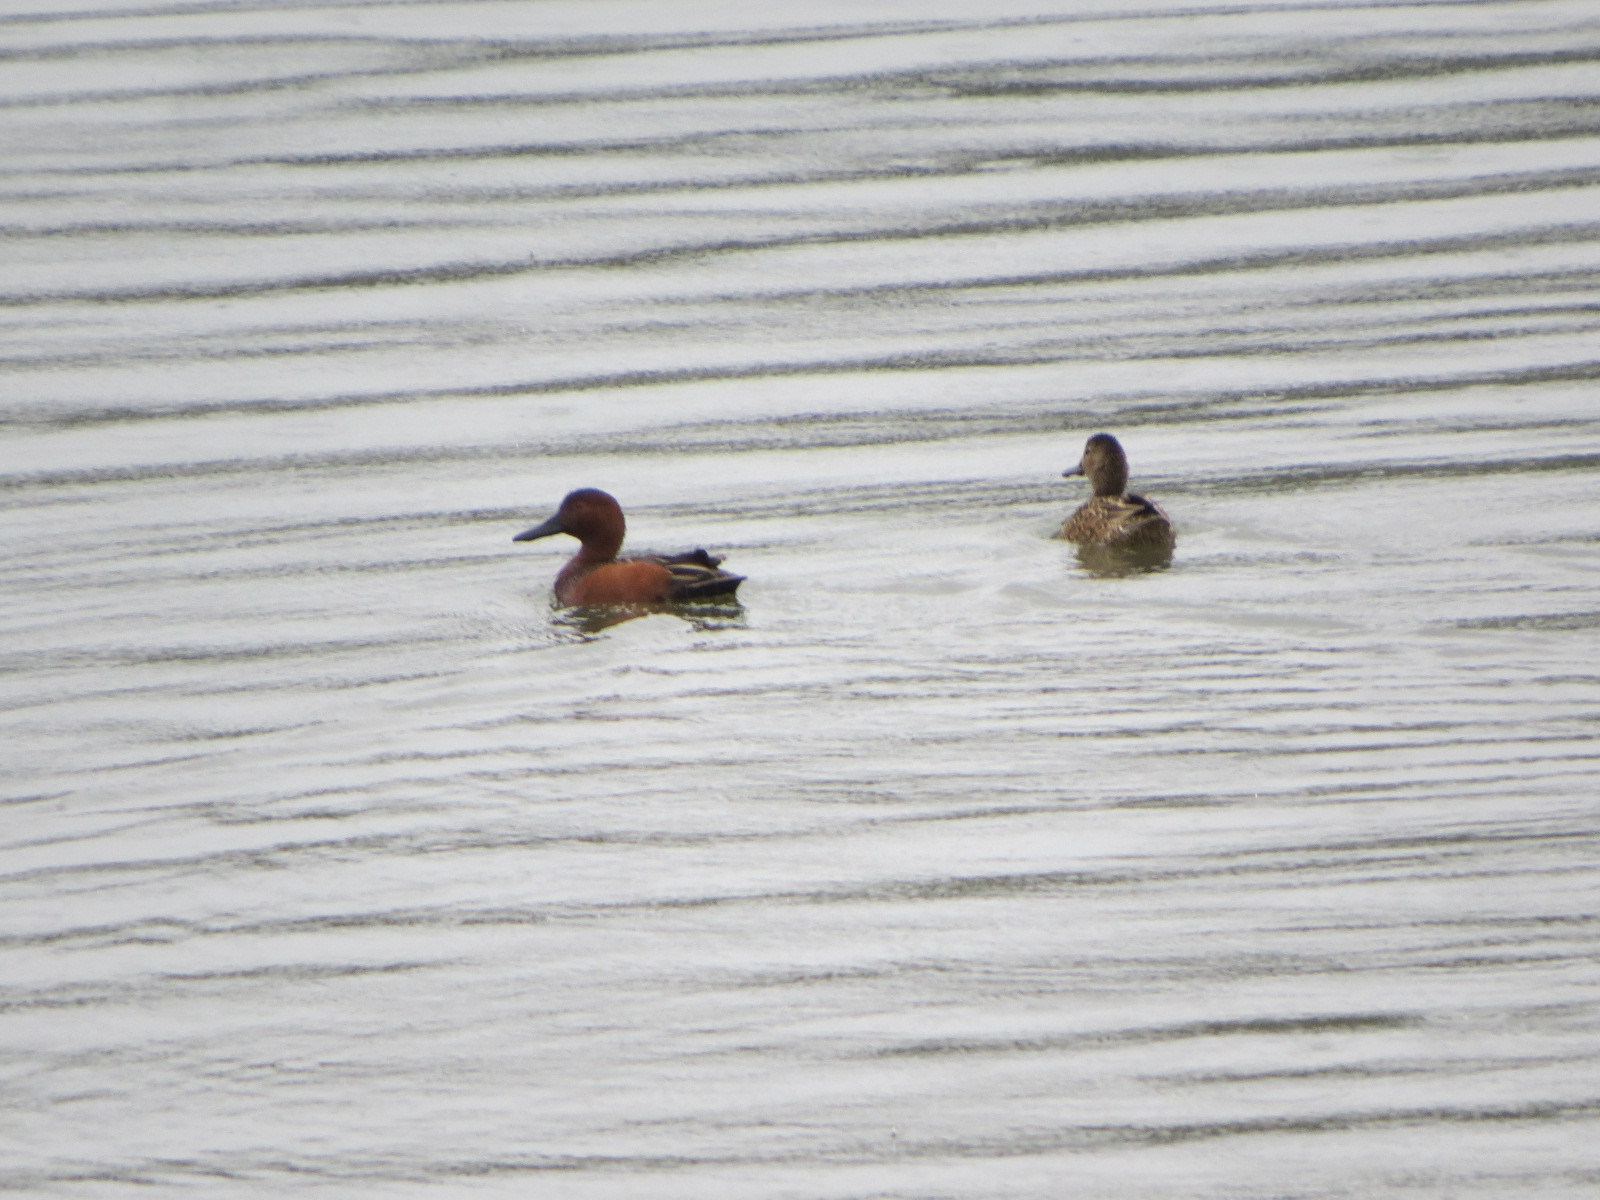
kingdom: Animalia
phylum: Chordata
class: Aves
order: Anseriformes
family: Anatidae
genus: Spatula
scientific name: Spatula cyanoptera
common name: Cinnamon teal
